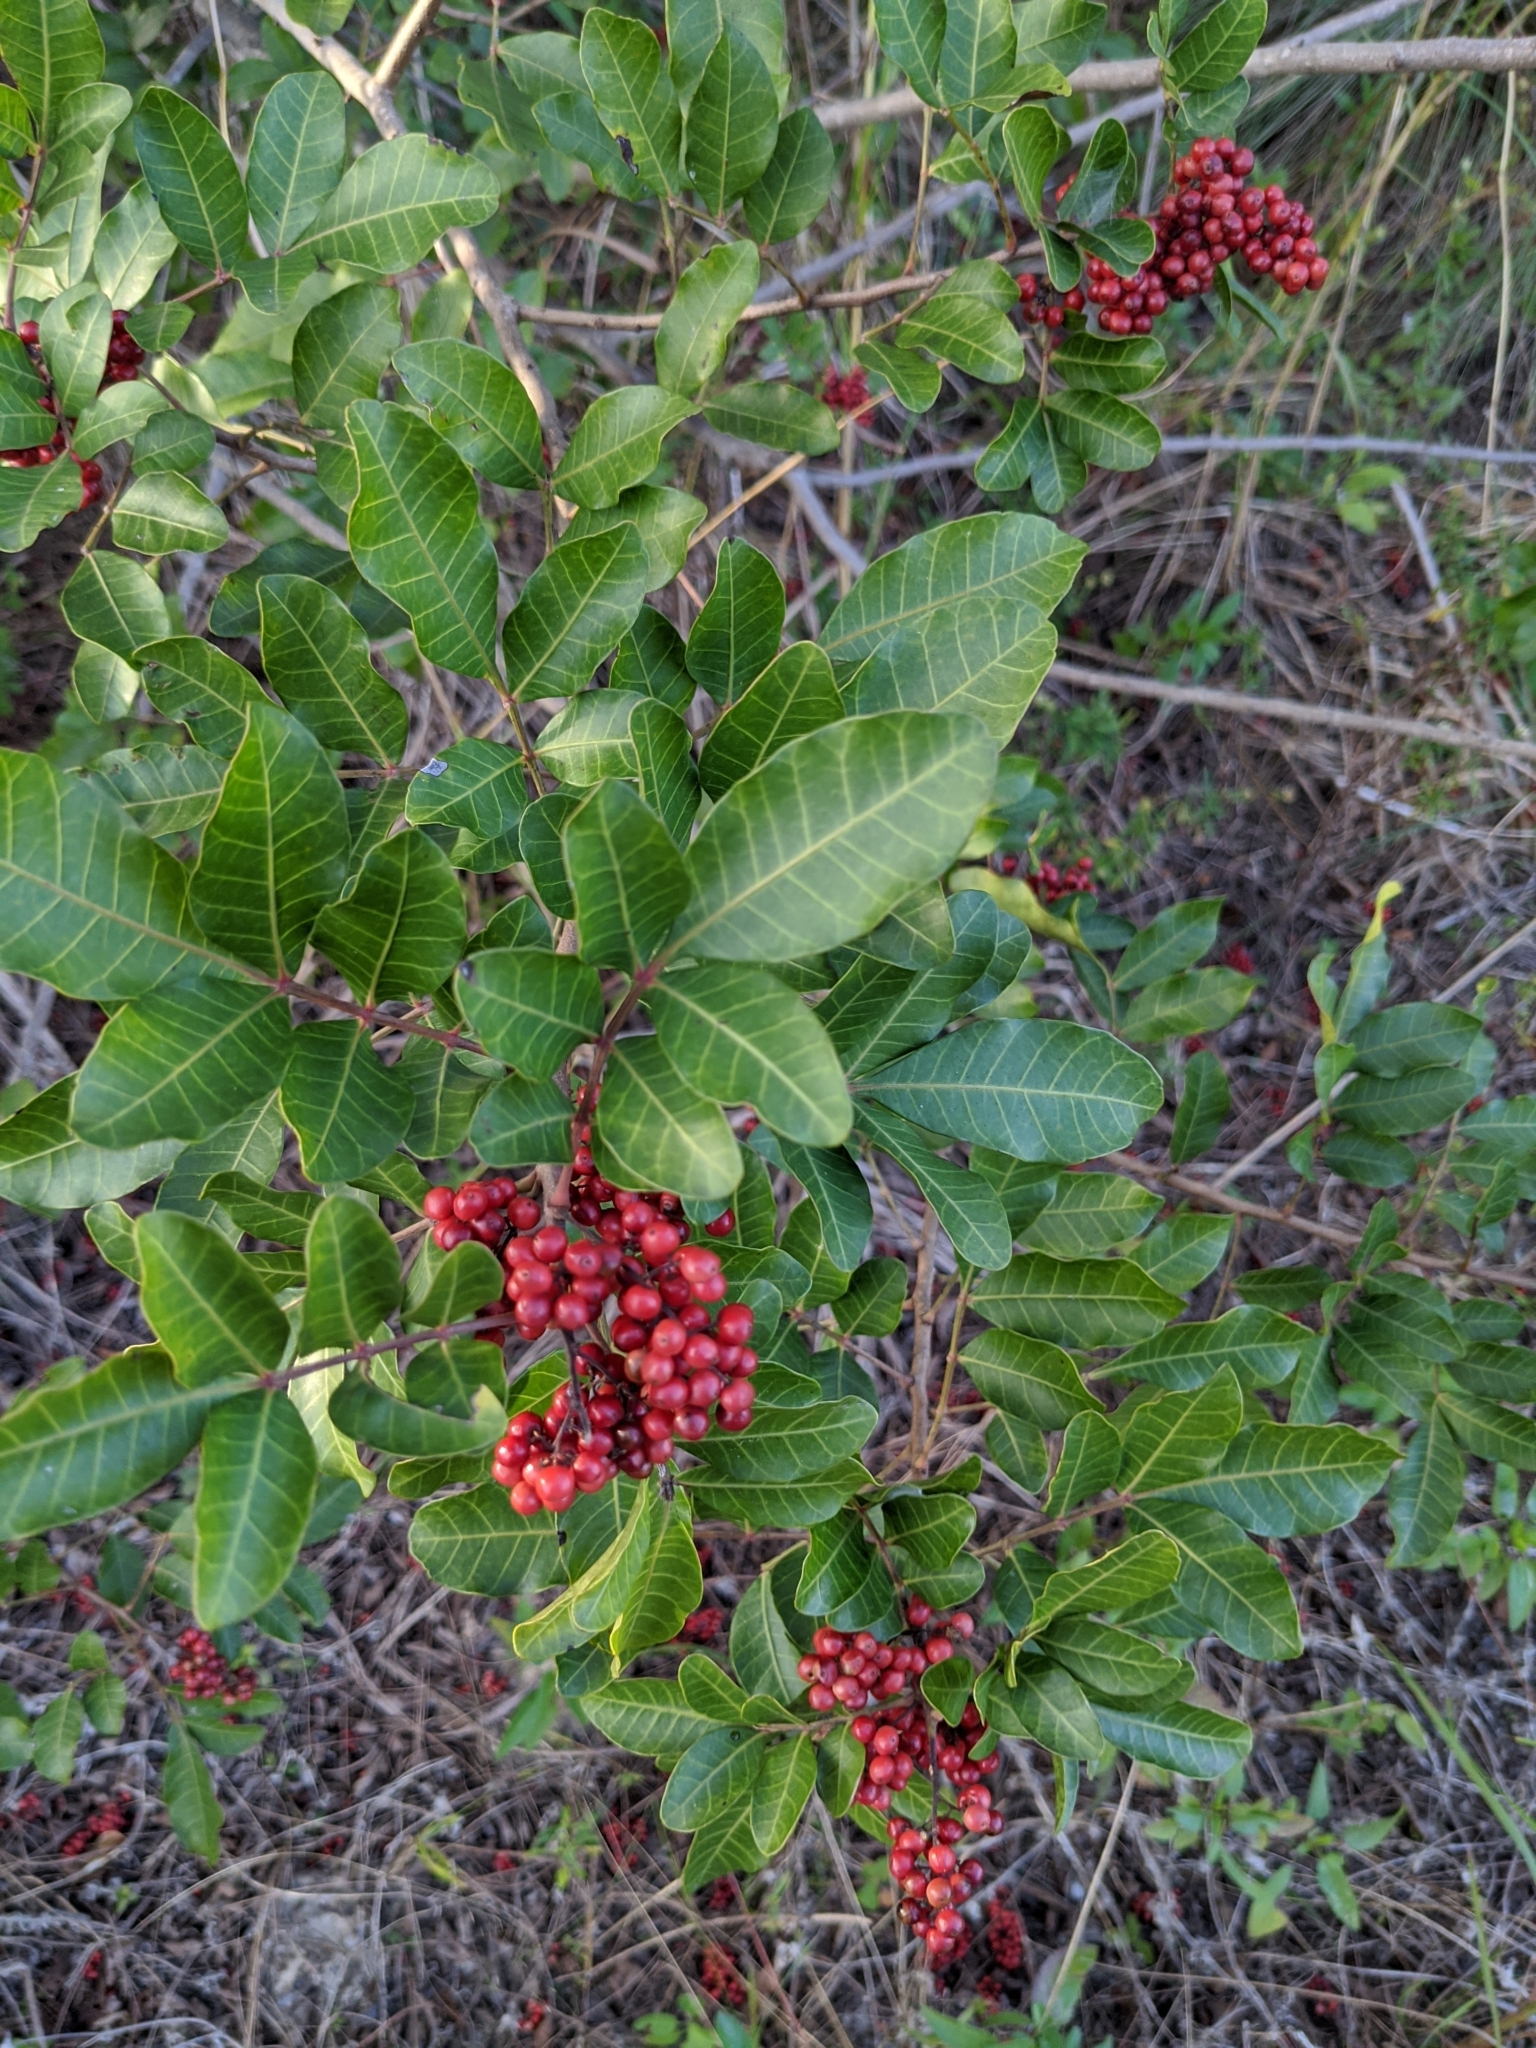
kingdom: Plantae
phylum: Tracheophyta
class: Magnoliopsida
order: Sapindales
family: Anacardiaceae
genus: Schinus
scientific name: Schinus terebinthifolia
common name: Brazilian peppertree
